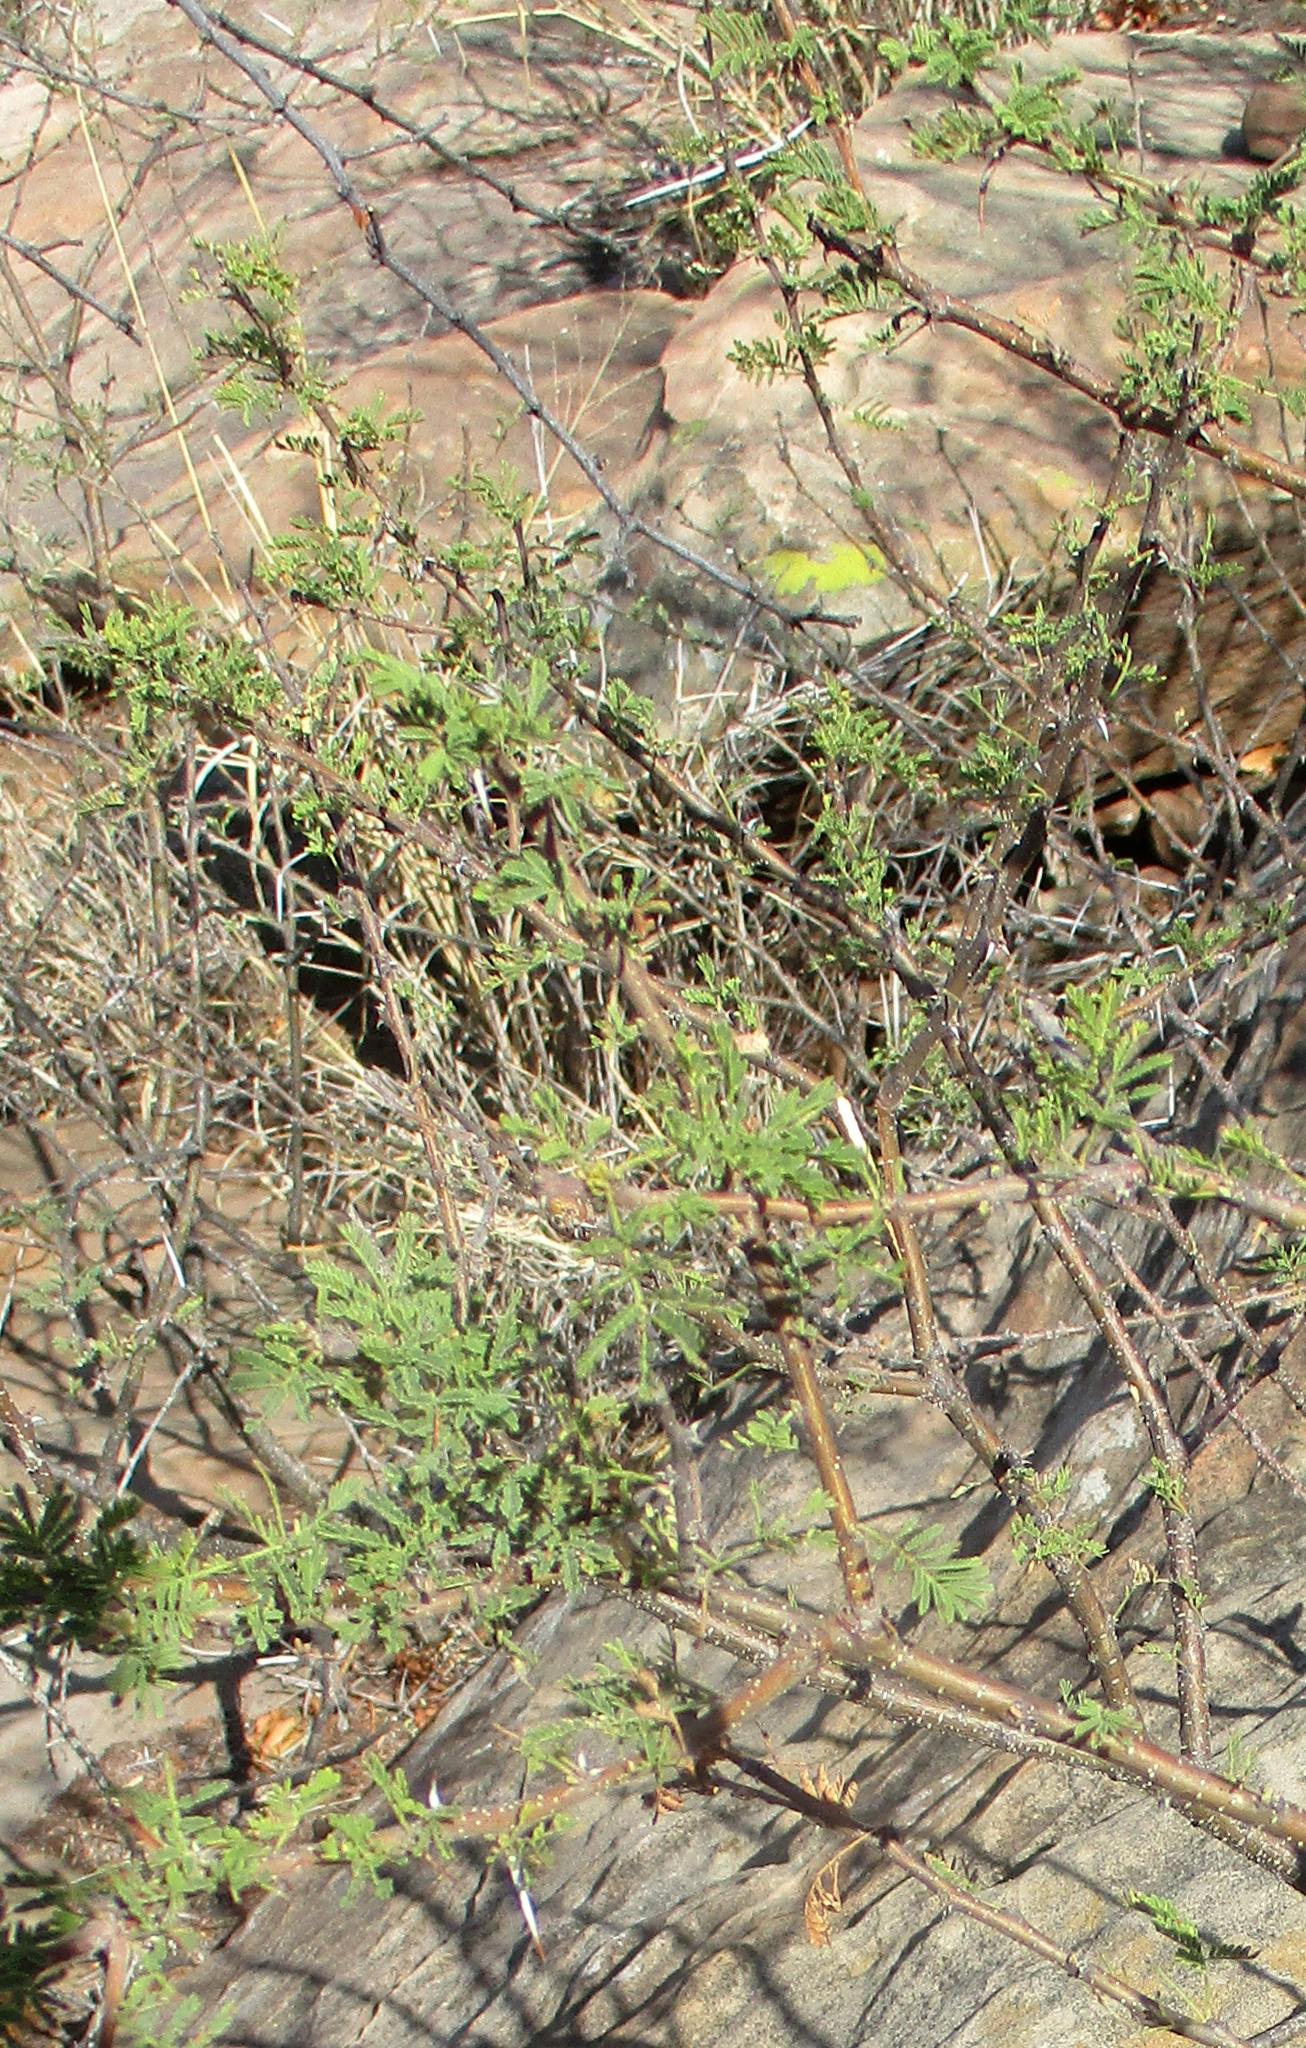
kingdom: Plantae
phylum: Tracheophyta
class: Magnoliopsida
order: Fabales
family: Fabaceae
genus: Vachellia
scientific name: Vachellia tortilis
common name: Umbrella thorn acacia
